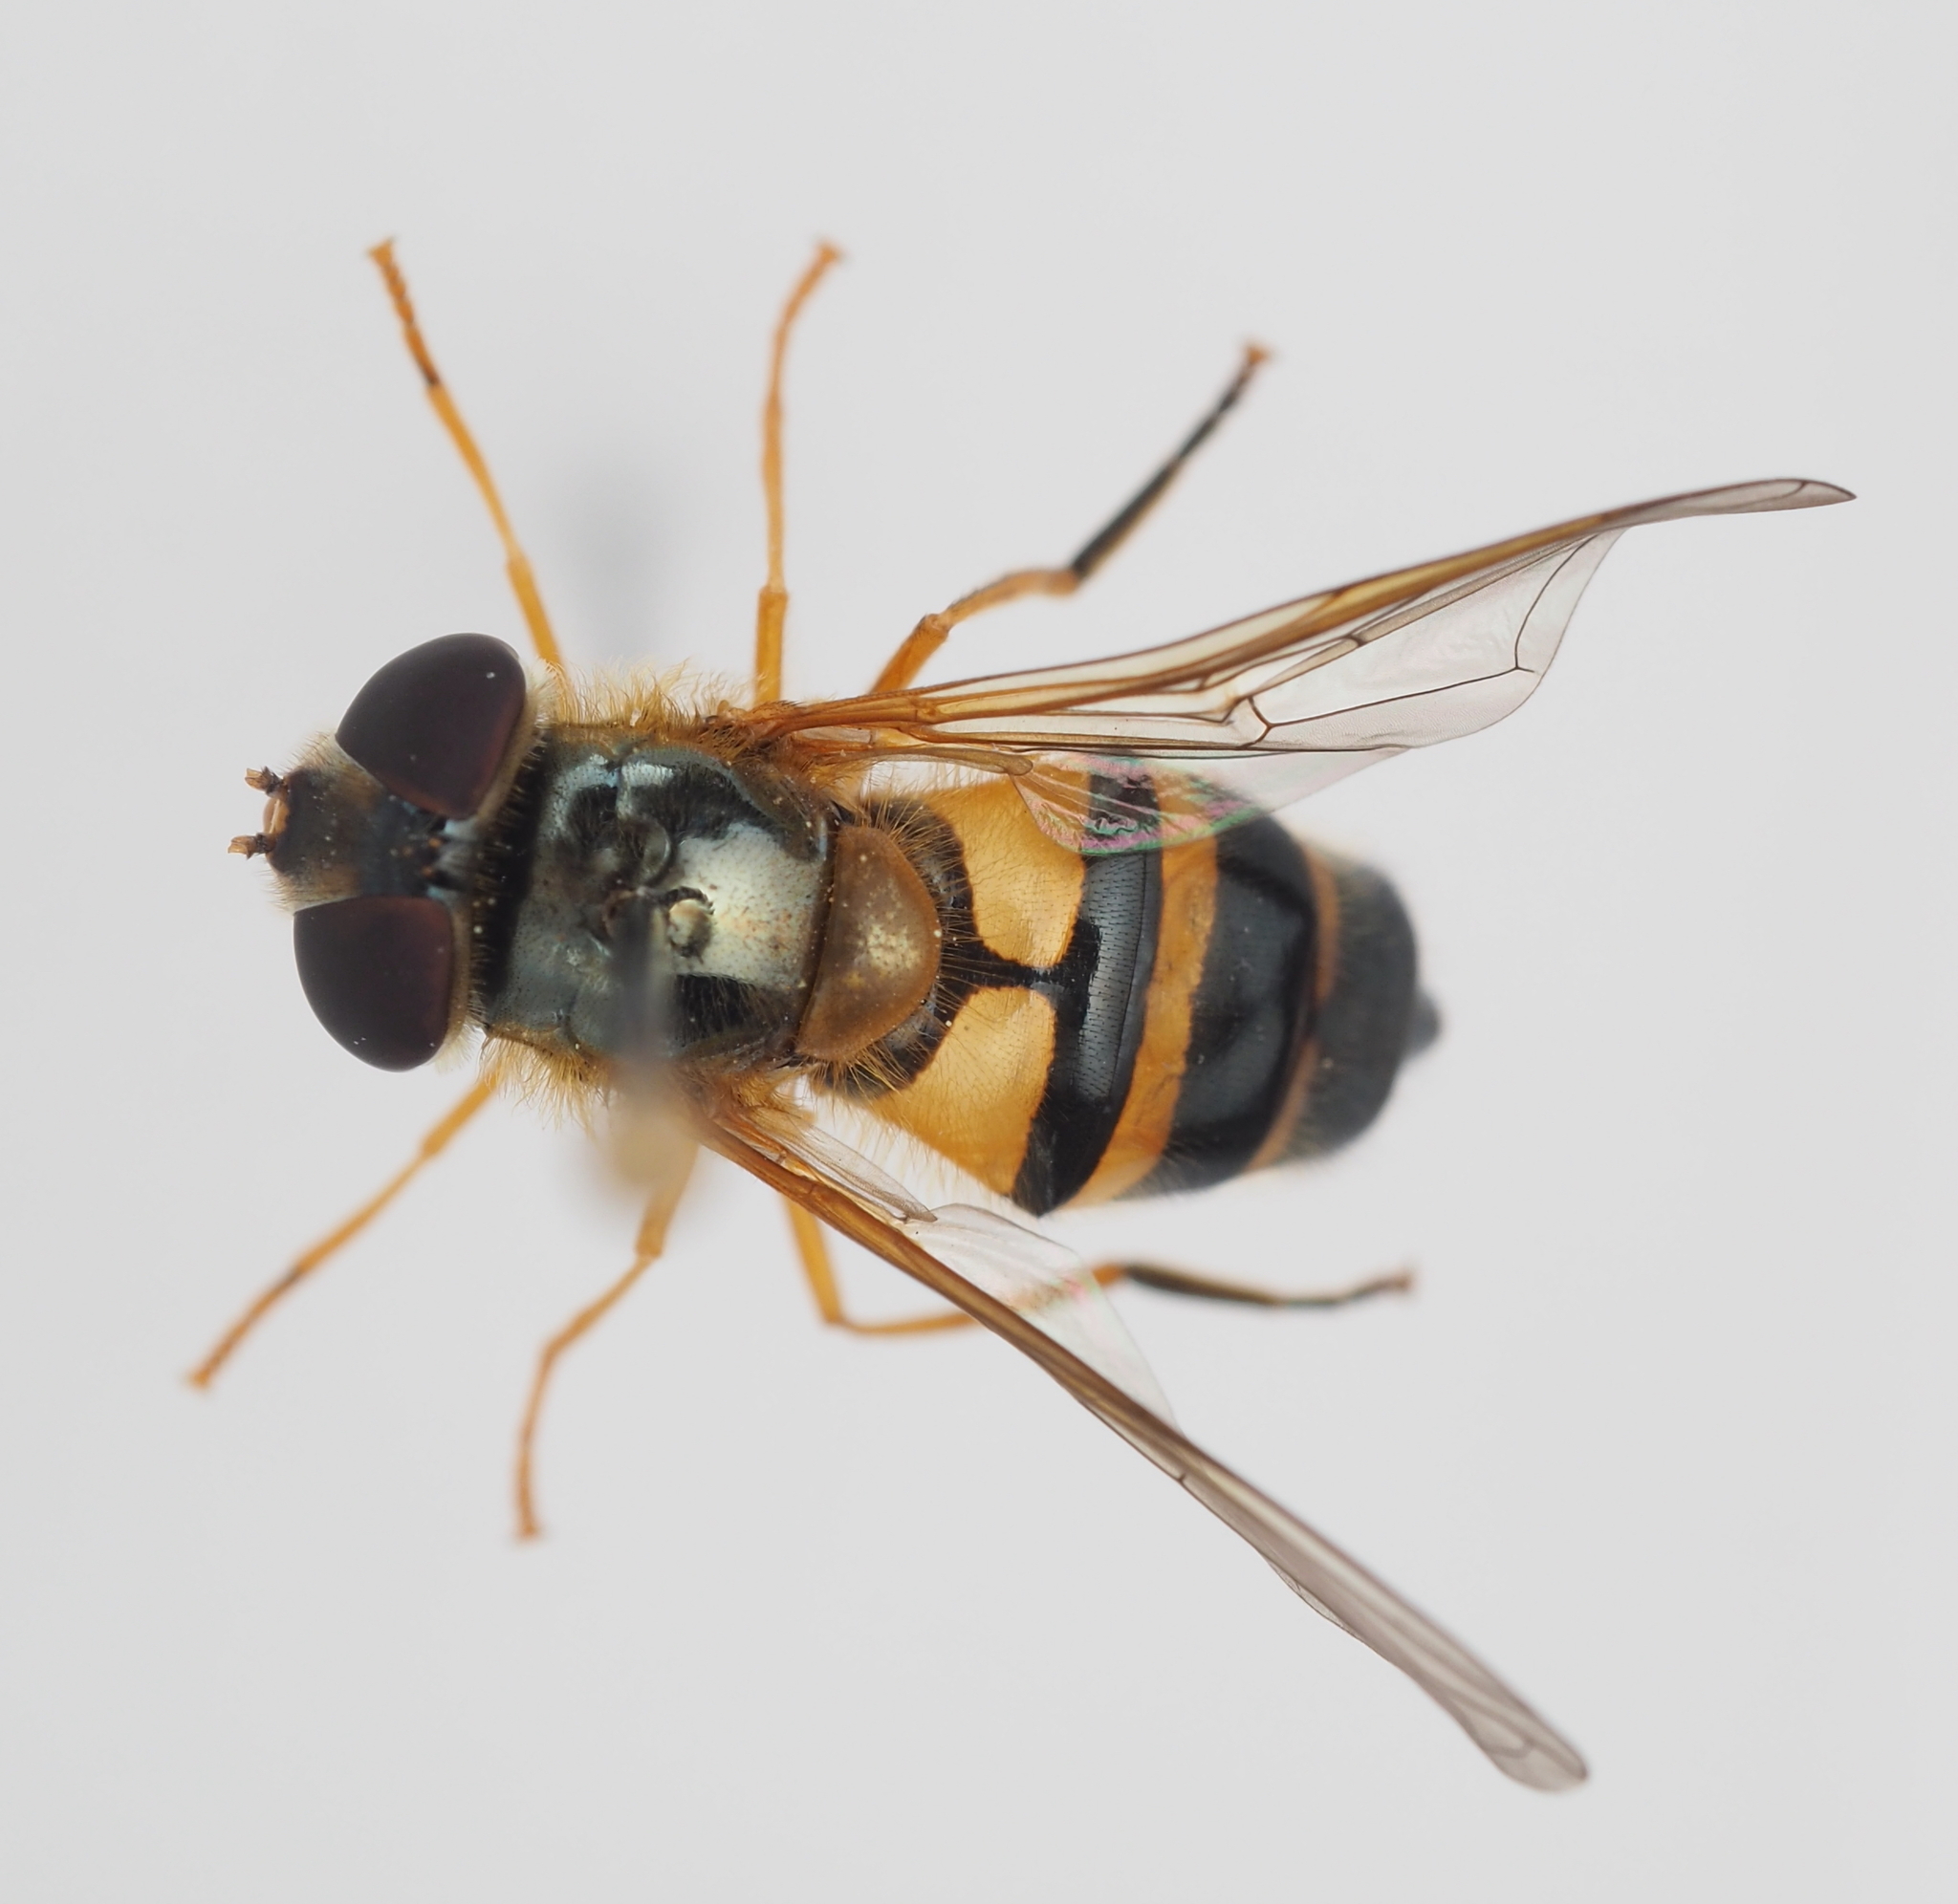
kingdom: Animalia
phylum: Arthropoda
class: Insecta
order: Diptera
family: Syrphidae
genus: Epistrophe
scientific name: Epistrophe eligans
